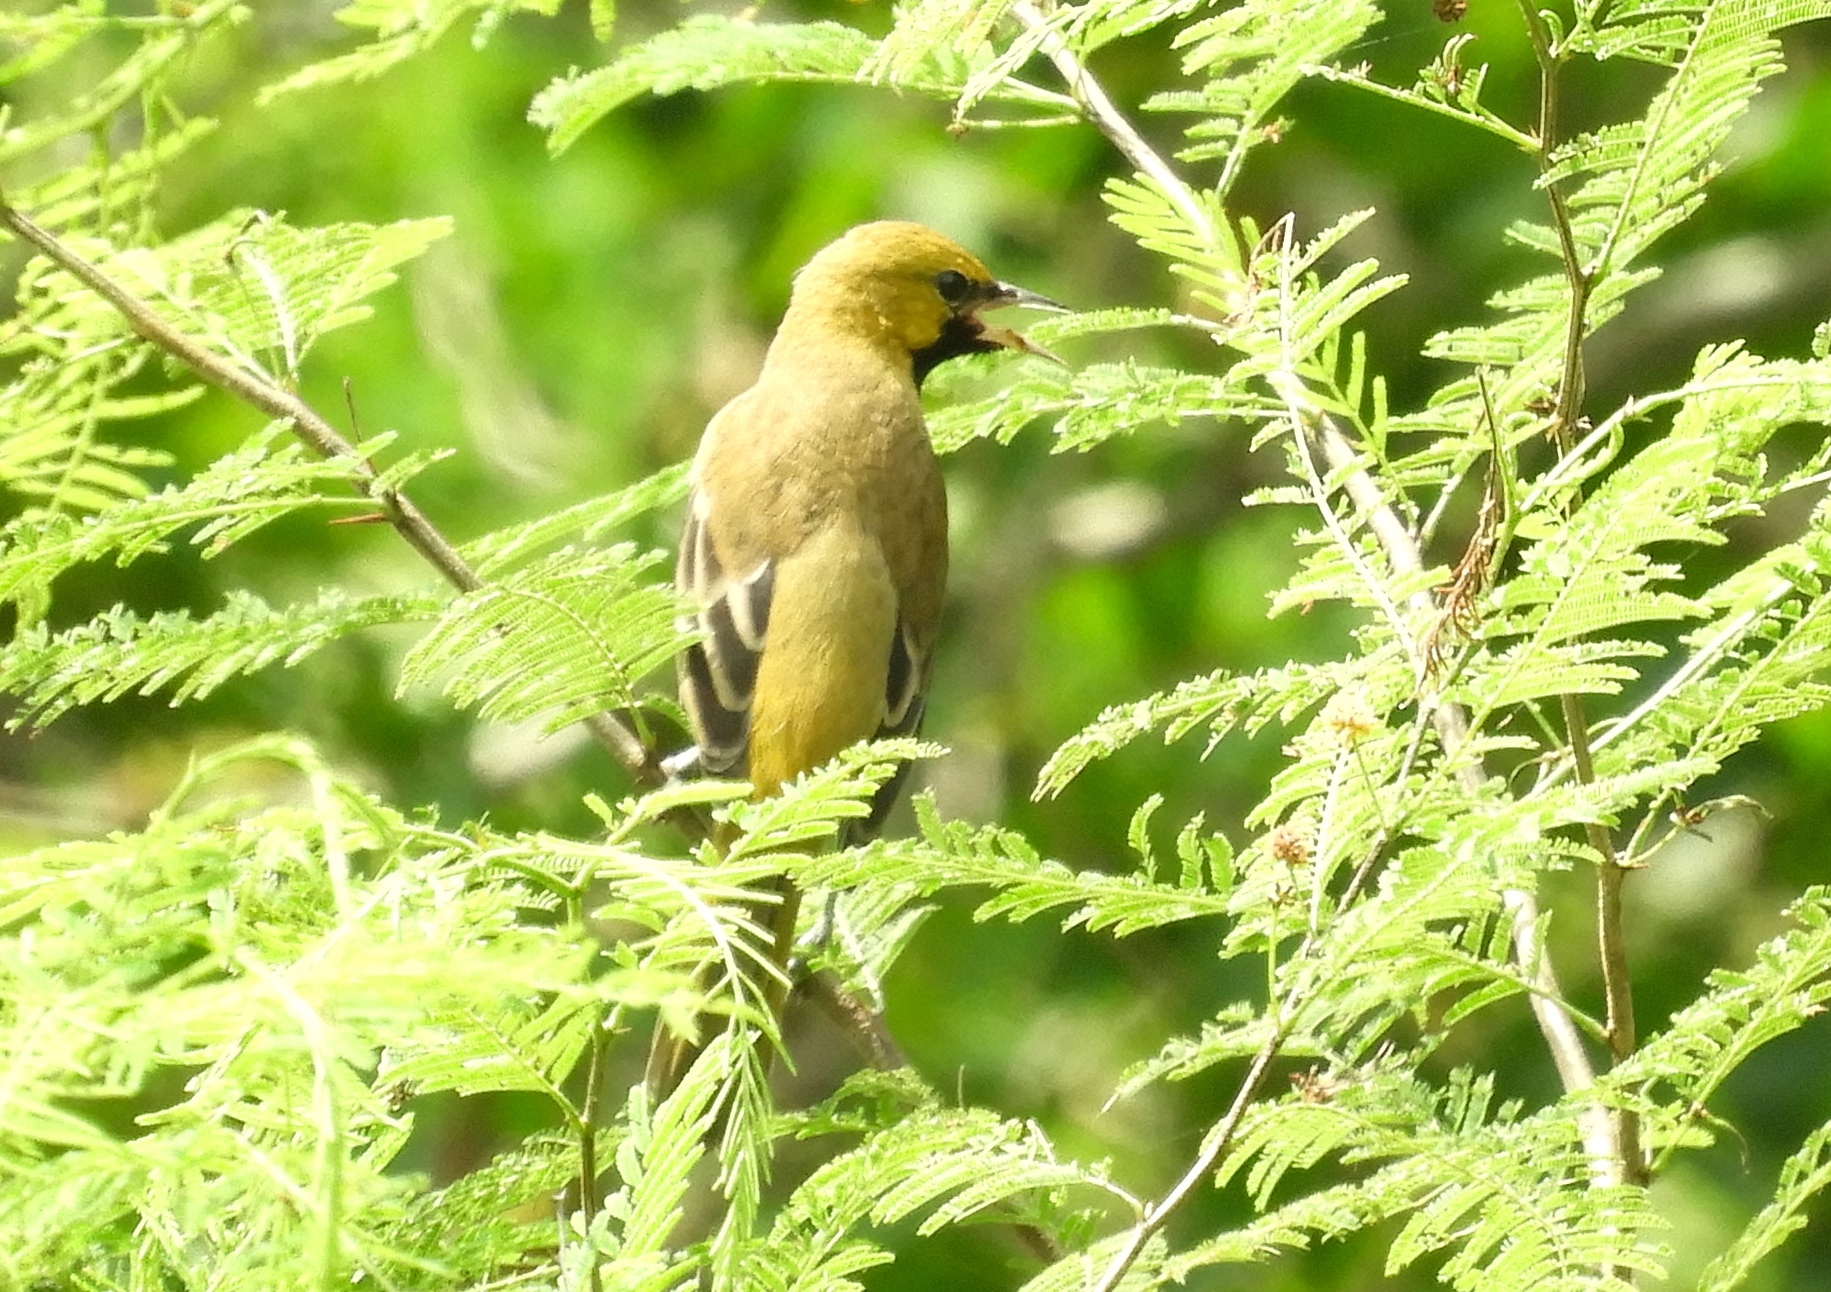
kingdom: Animalia
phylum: Chordata
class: Aves
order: Passeriformes
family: Icteridae
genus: Icterus
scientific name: Icterus spurius
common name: Orchard oriole
